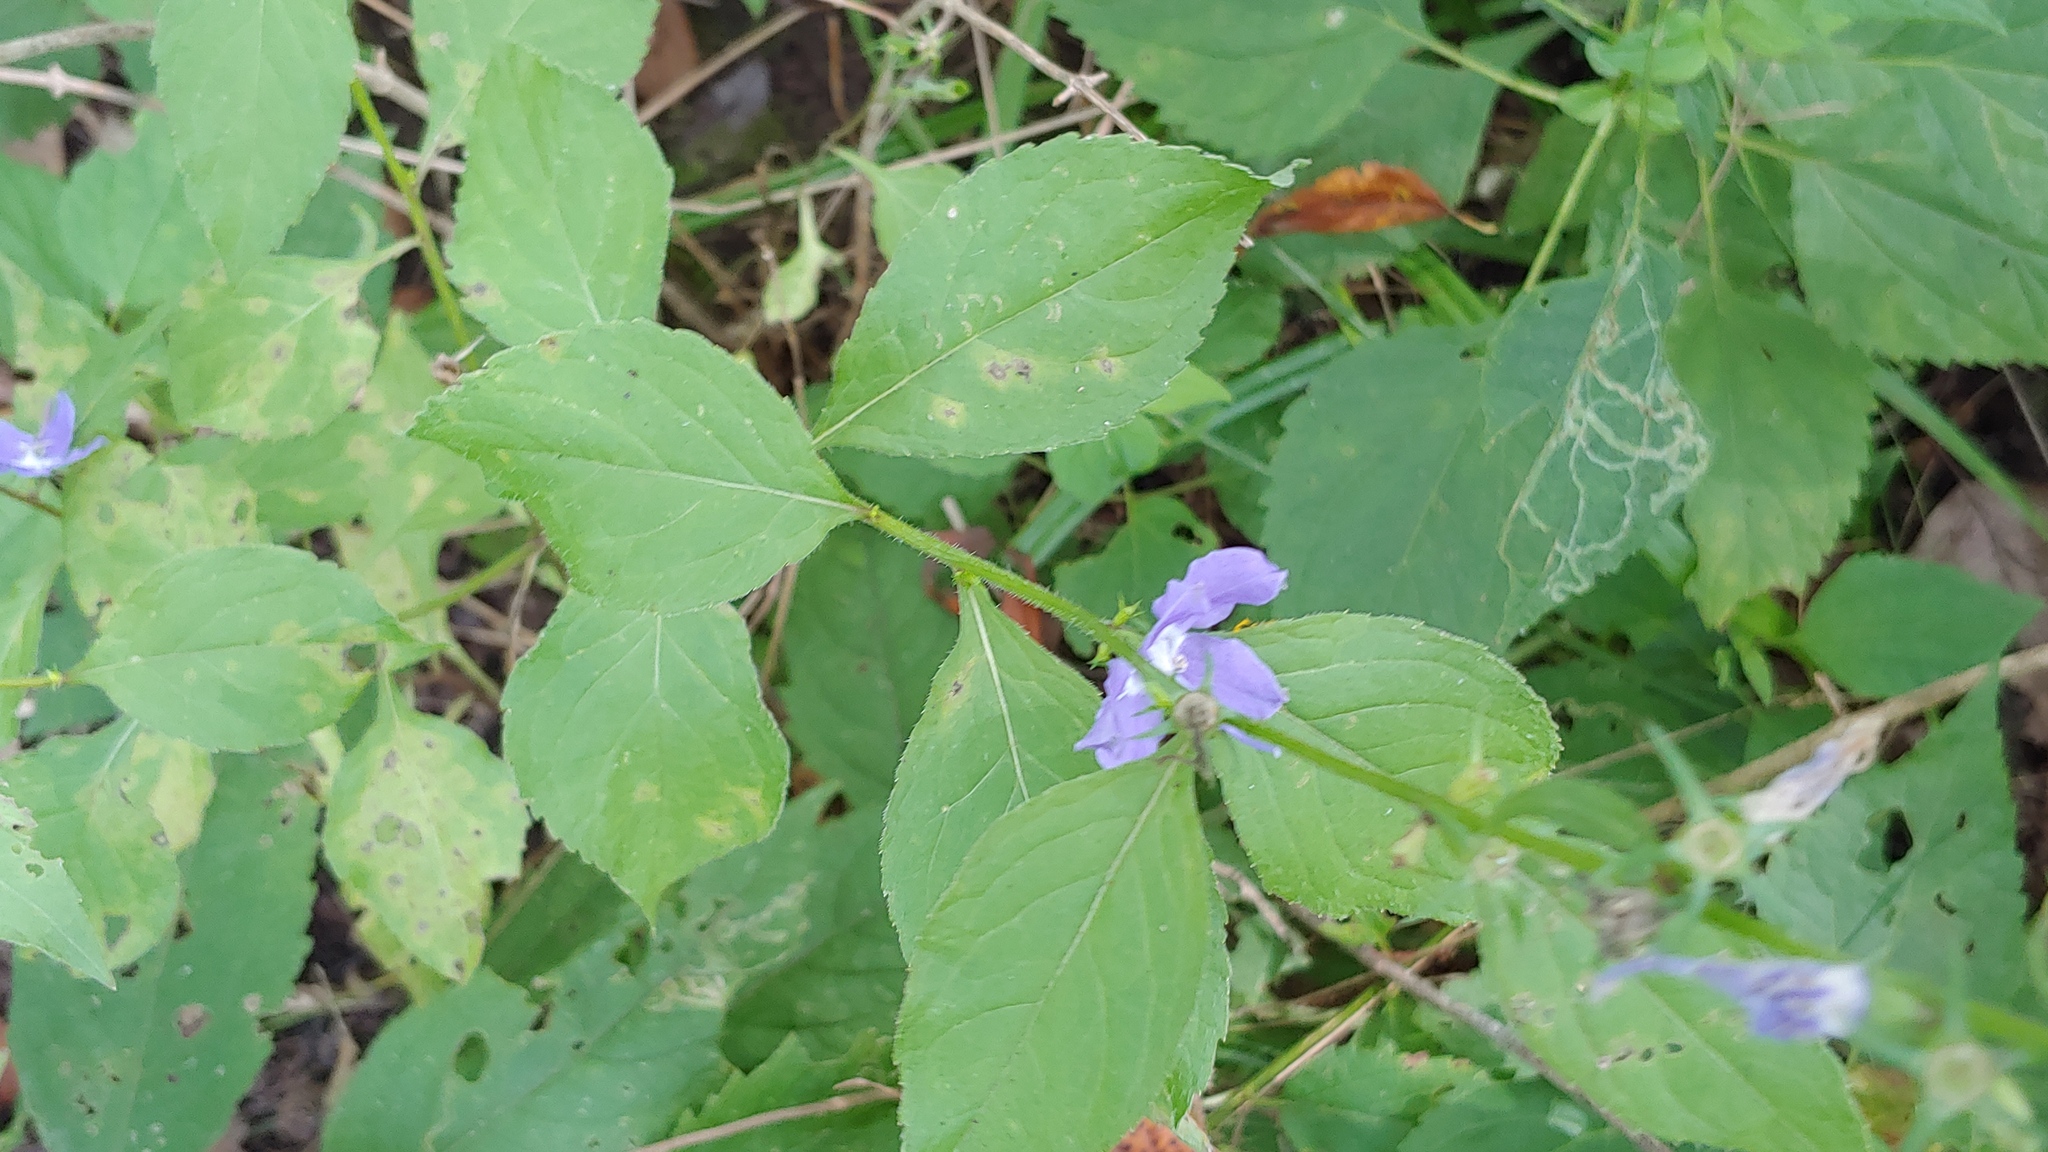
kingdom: Fungi
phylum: Basidiomycota
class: Pucciniomycetes
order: Pucciniales
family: Coleosporiaceae
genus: Coleosporium
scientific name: Coleosporium campanulae
